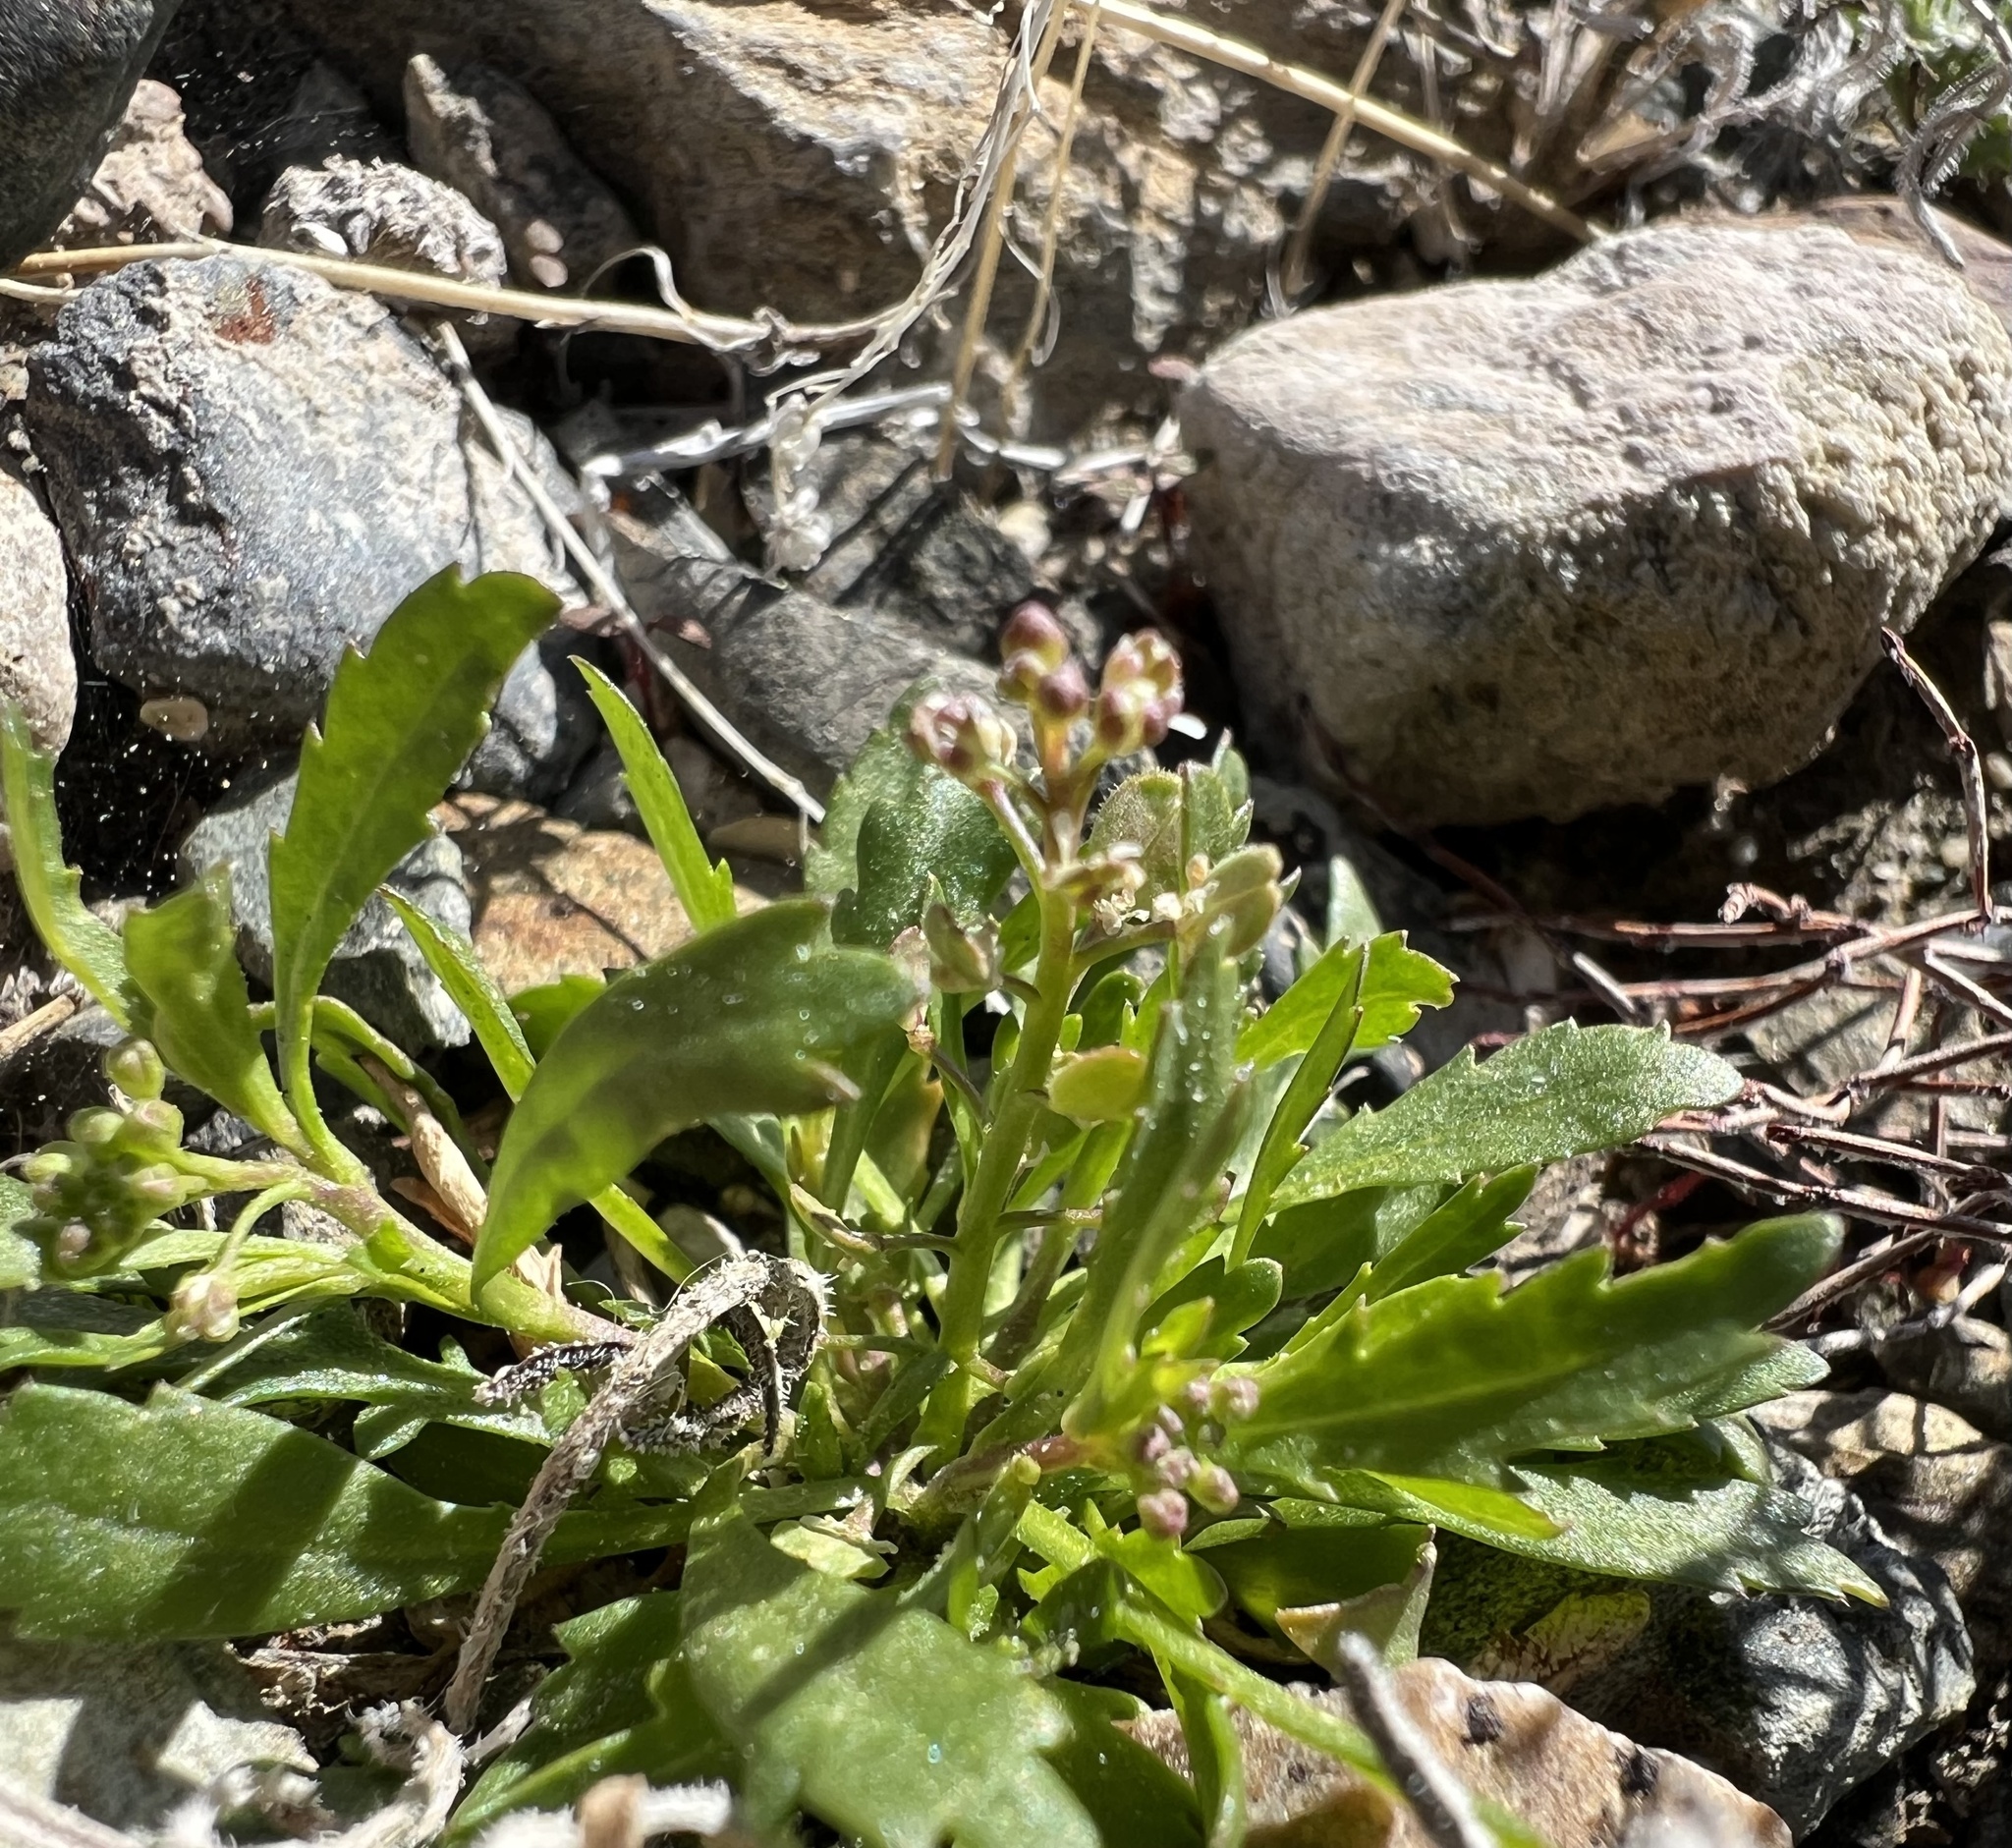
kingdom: Plantae
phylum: Tracheophyta
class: Magnoliopsida
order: Brassicales
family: Brassicaceae
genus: Lepidium
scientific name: Lepidium lasiocarpum
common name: Hairy-pod pepperwort
